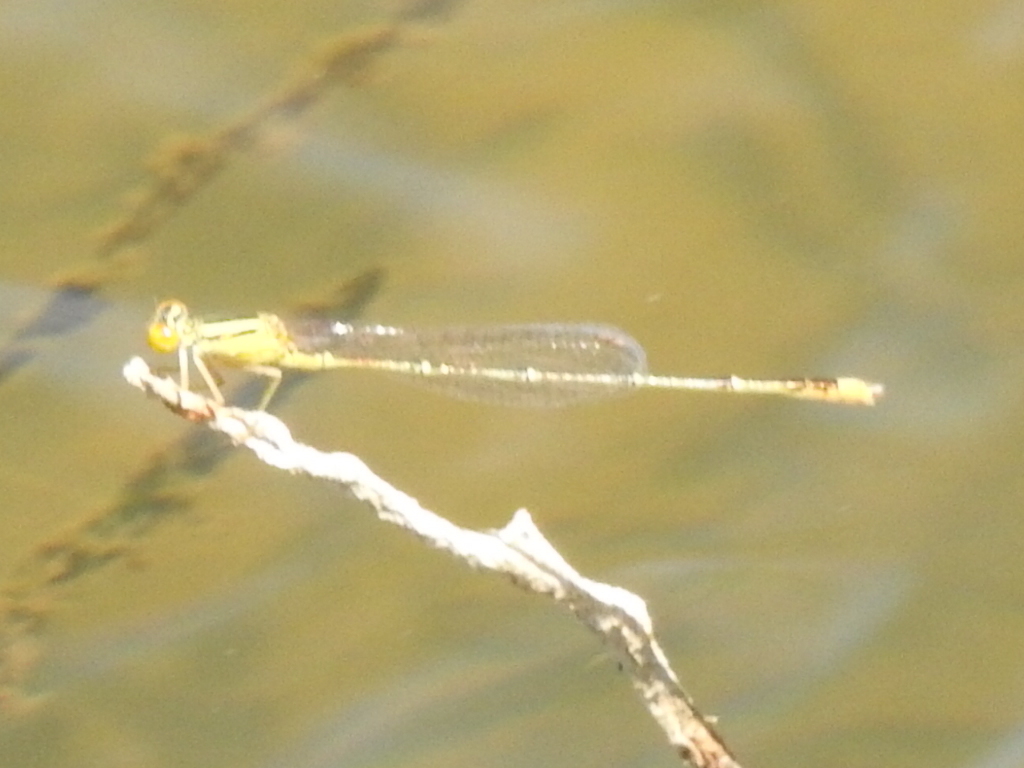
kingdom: Animalia
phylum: Arthropoda
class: Insecta
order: Odonata
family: Coenagrionidae
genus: Enallagma
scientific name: Enallagma signatum
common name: Orange bluet
